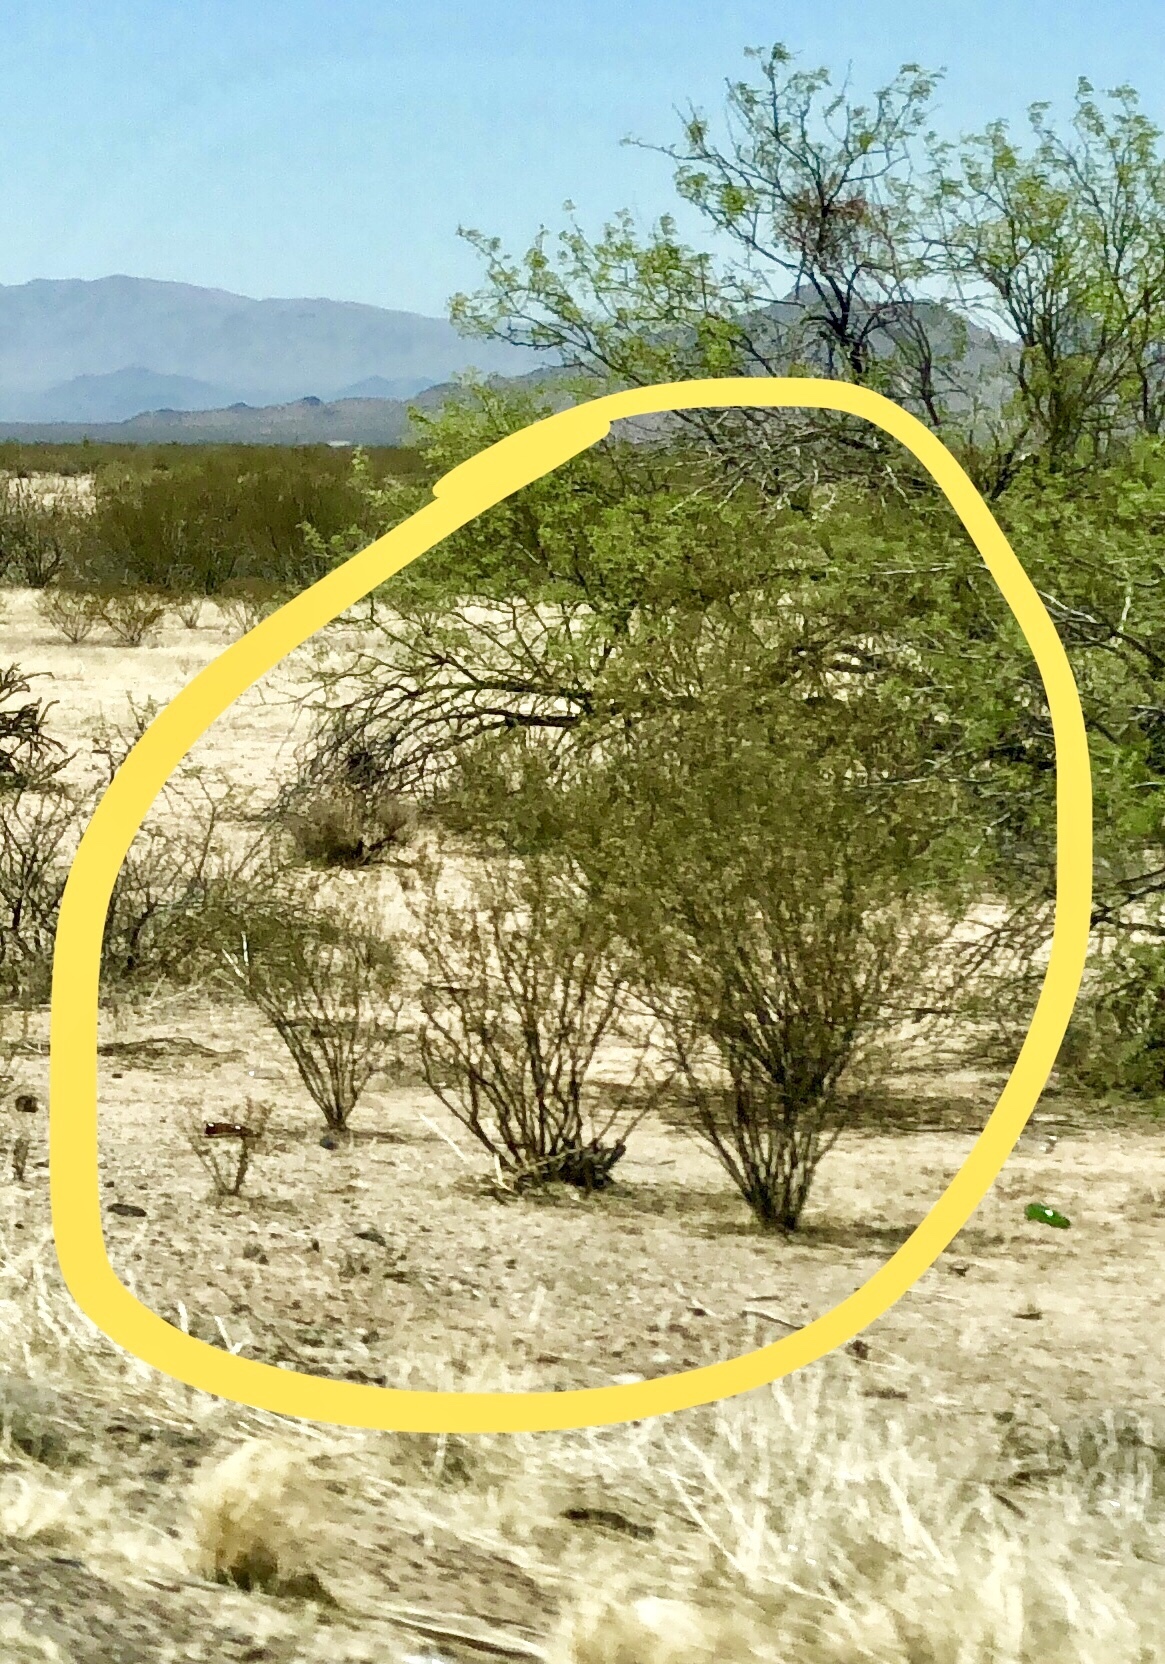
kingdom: Plantae
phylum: Tracheophyta
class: Magnoliopsida
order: Zygophyllales
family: Zygophyllaceae
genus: Larrea
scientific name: Larrea tridentata
